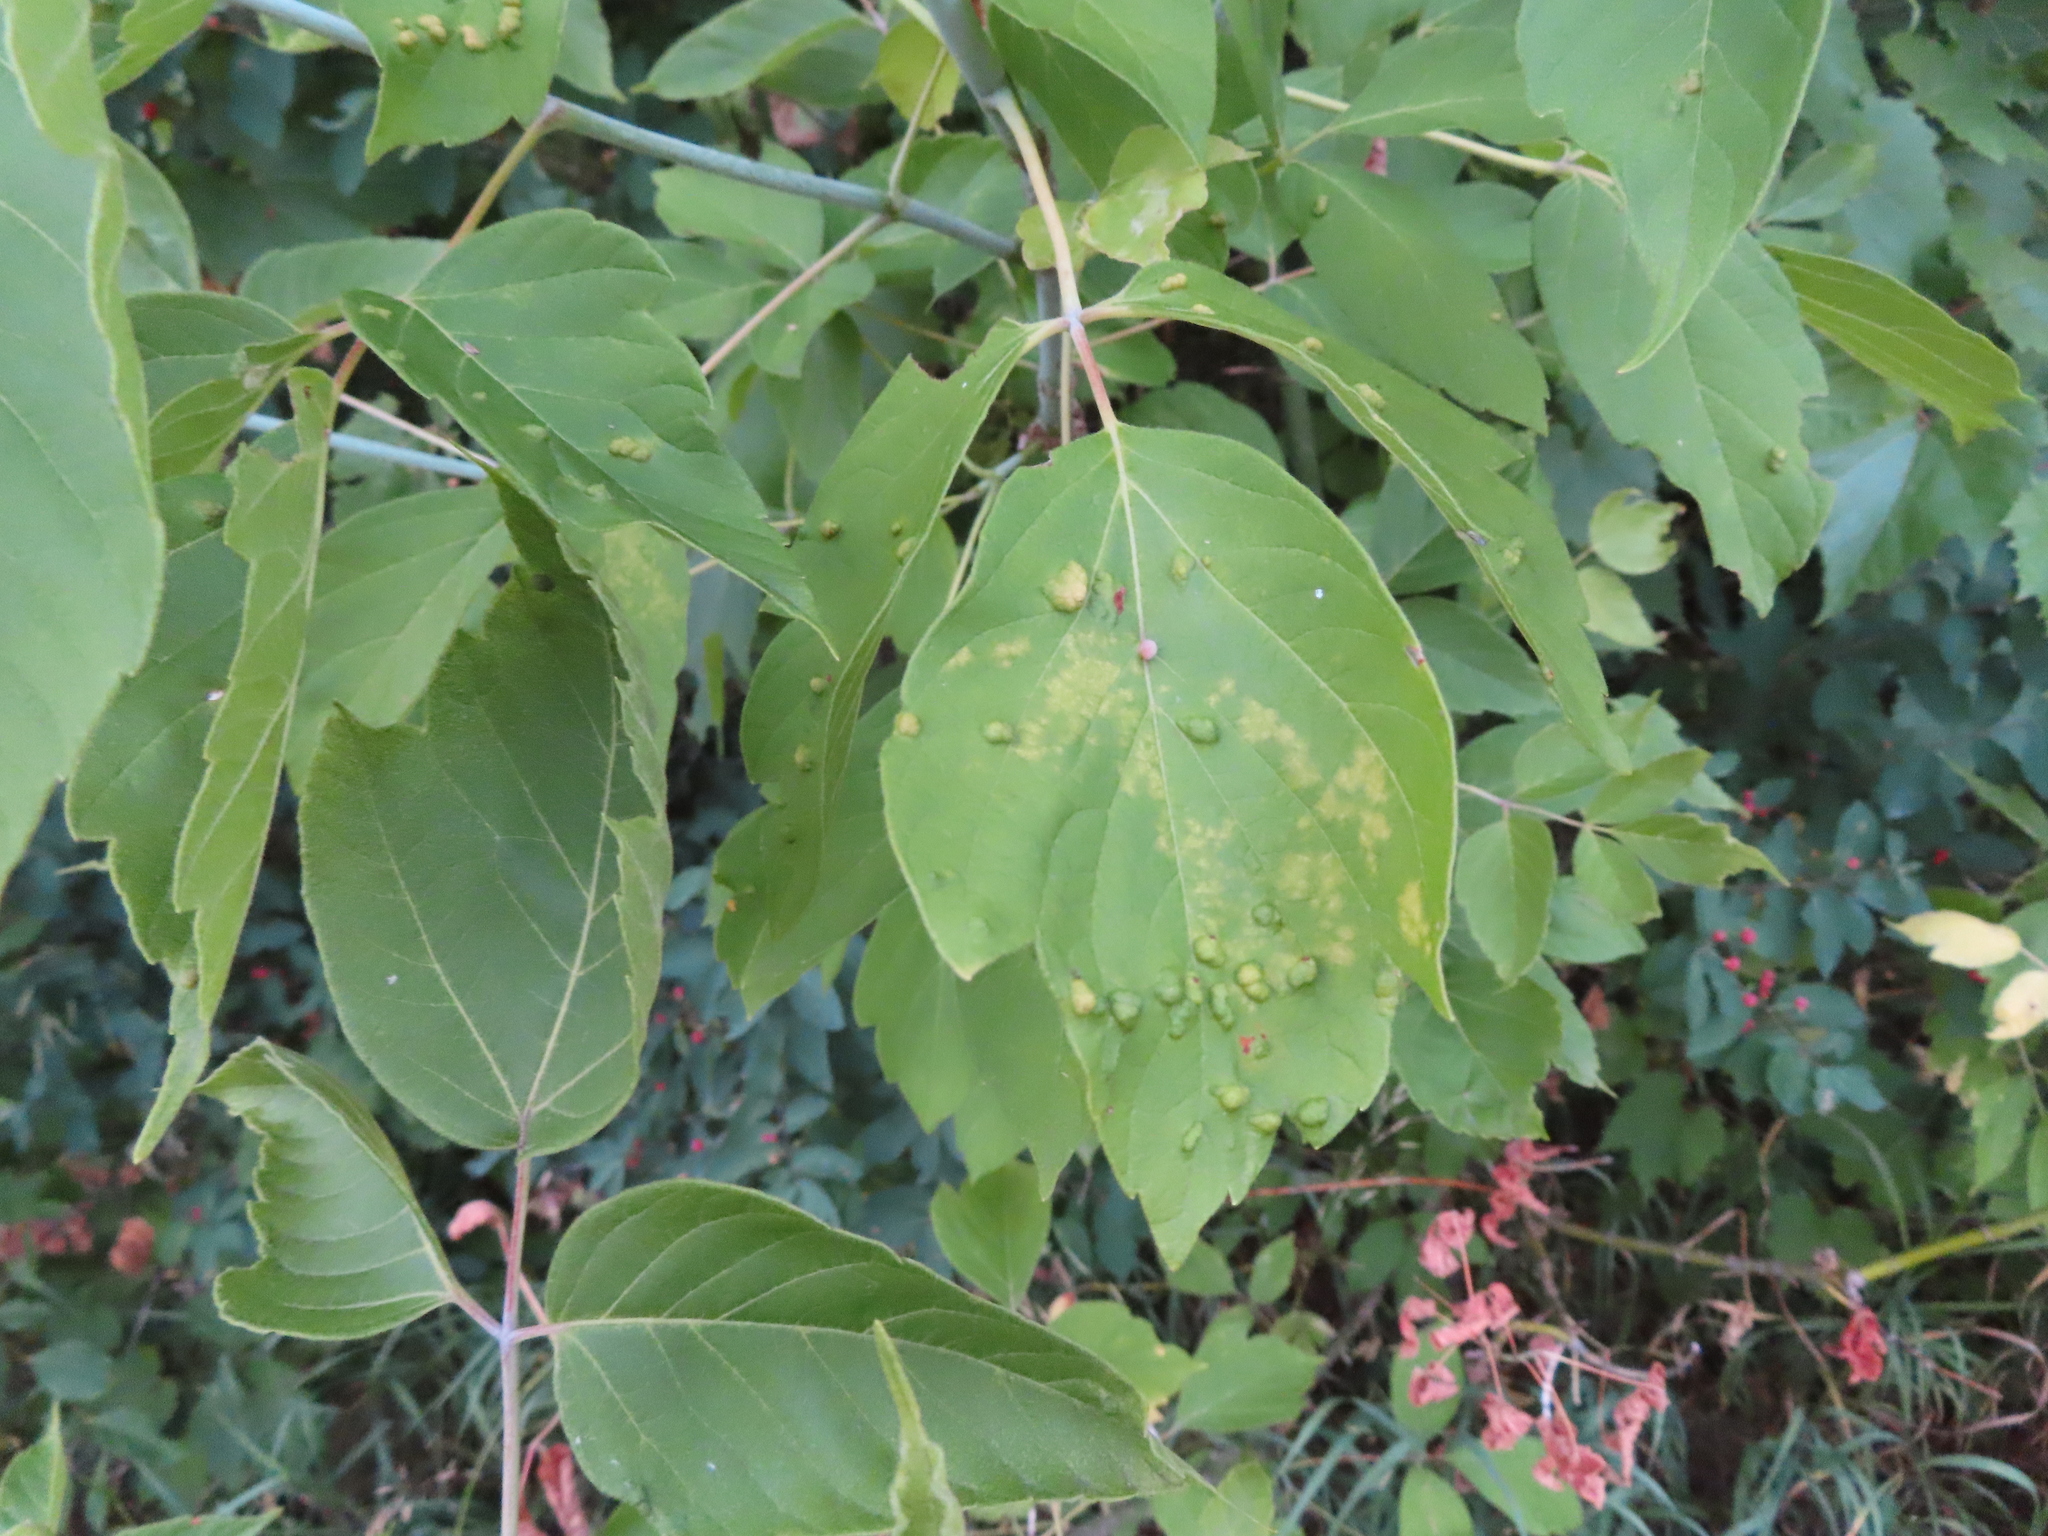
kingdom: Plantae
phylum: Tracheophyta
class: Magnoliopsida
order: Sapindales
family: Sapindaceae
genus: Acer
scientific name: Acer negundo
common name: Ashleaf maple
